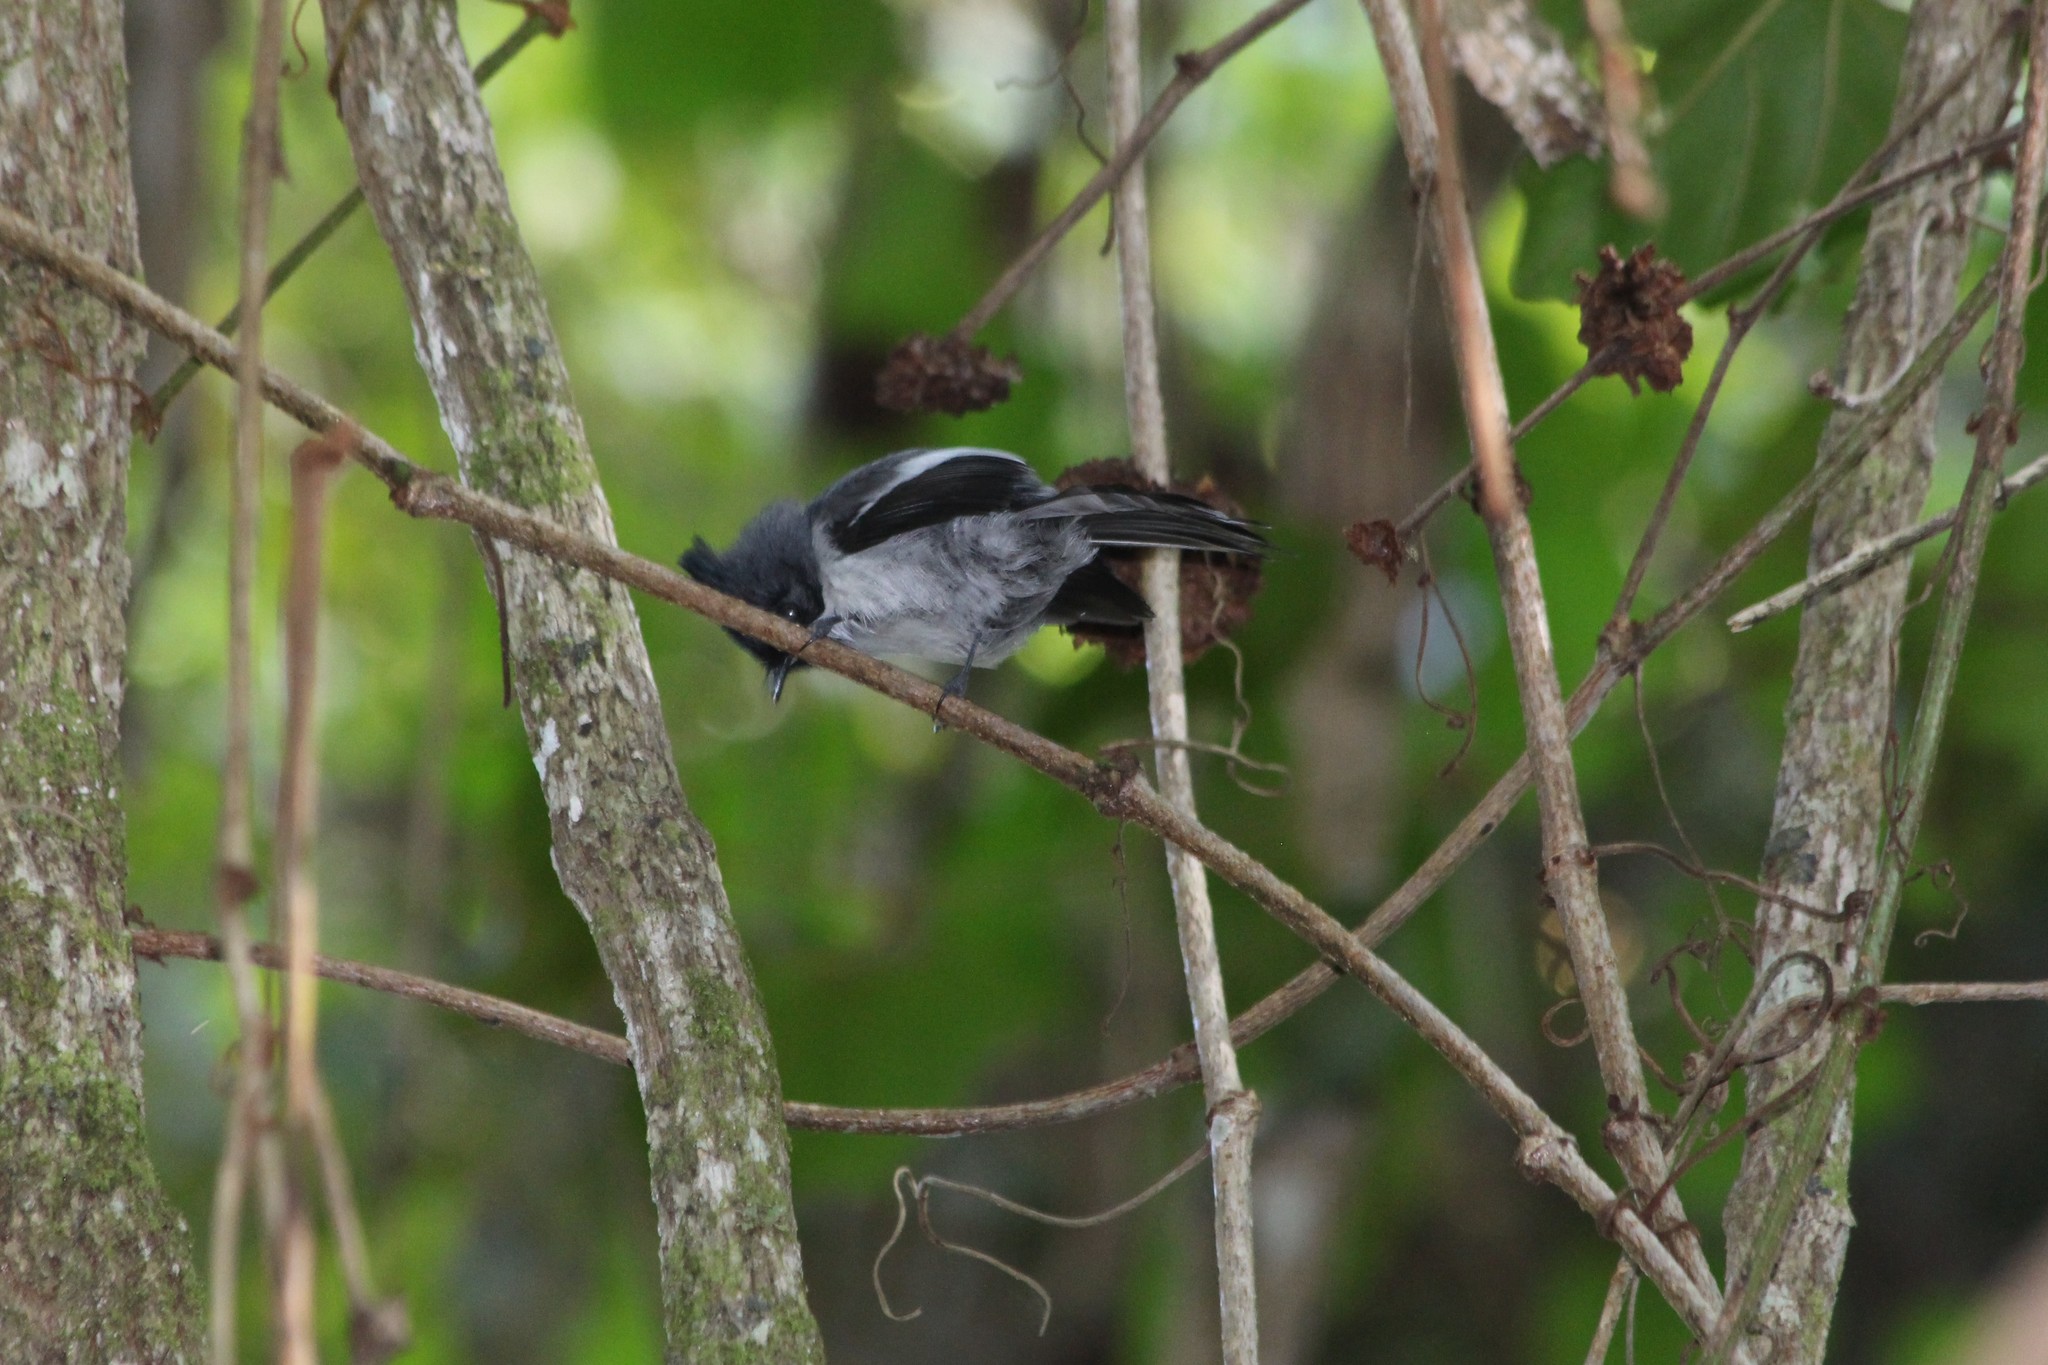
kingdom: Animalia
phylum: Chordata
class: Aves
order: Passeriformes
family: Monarchidae
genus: Trochocercus
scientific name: Trochocercus cyanomelas
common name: Blue-mantled crested flycatcher
